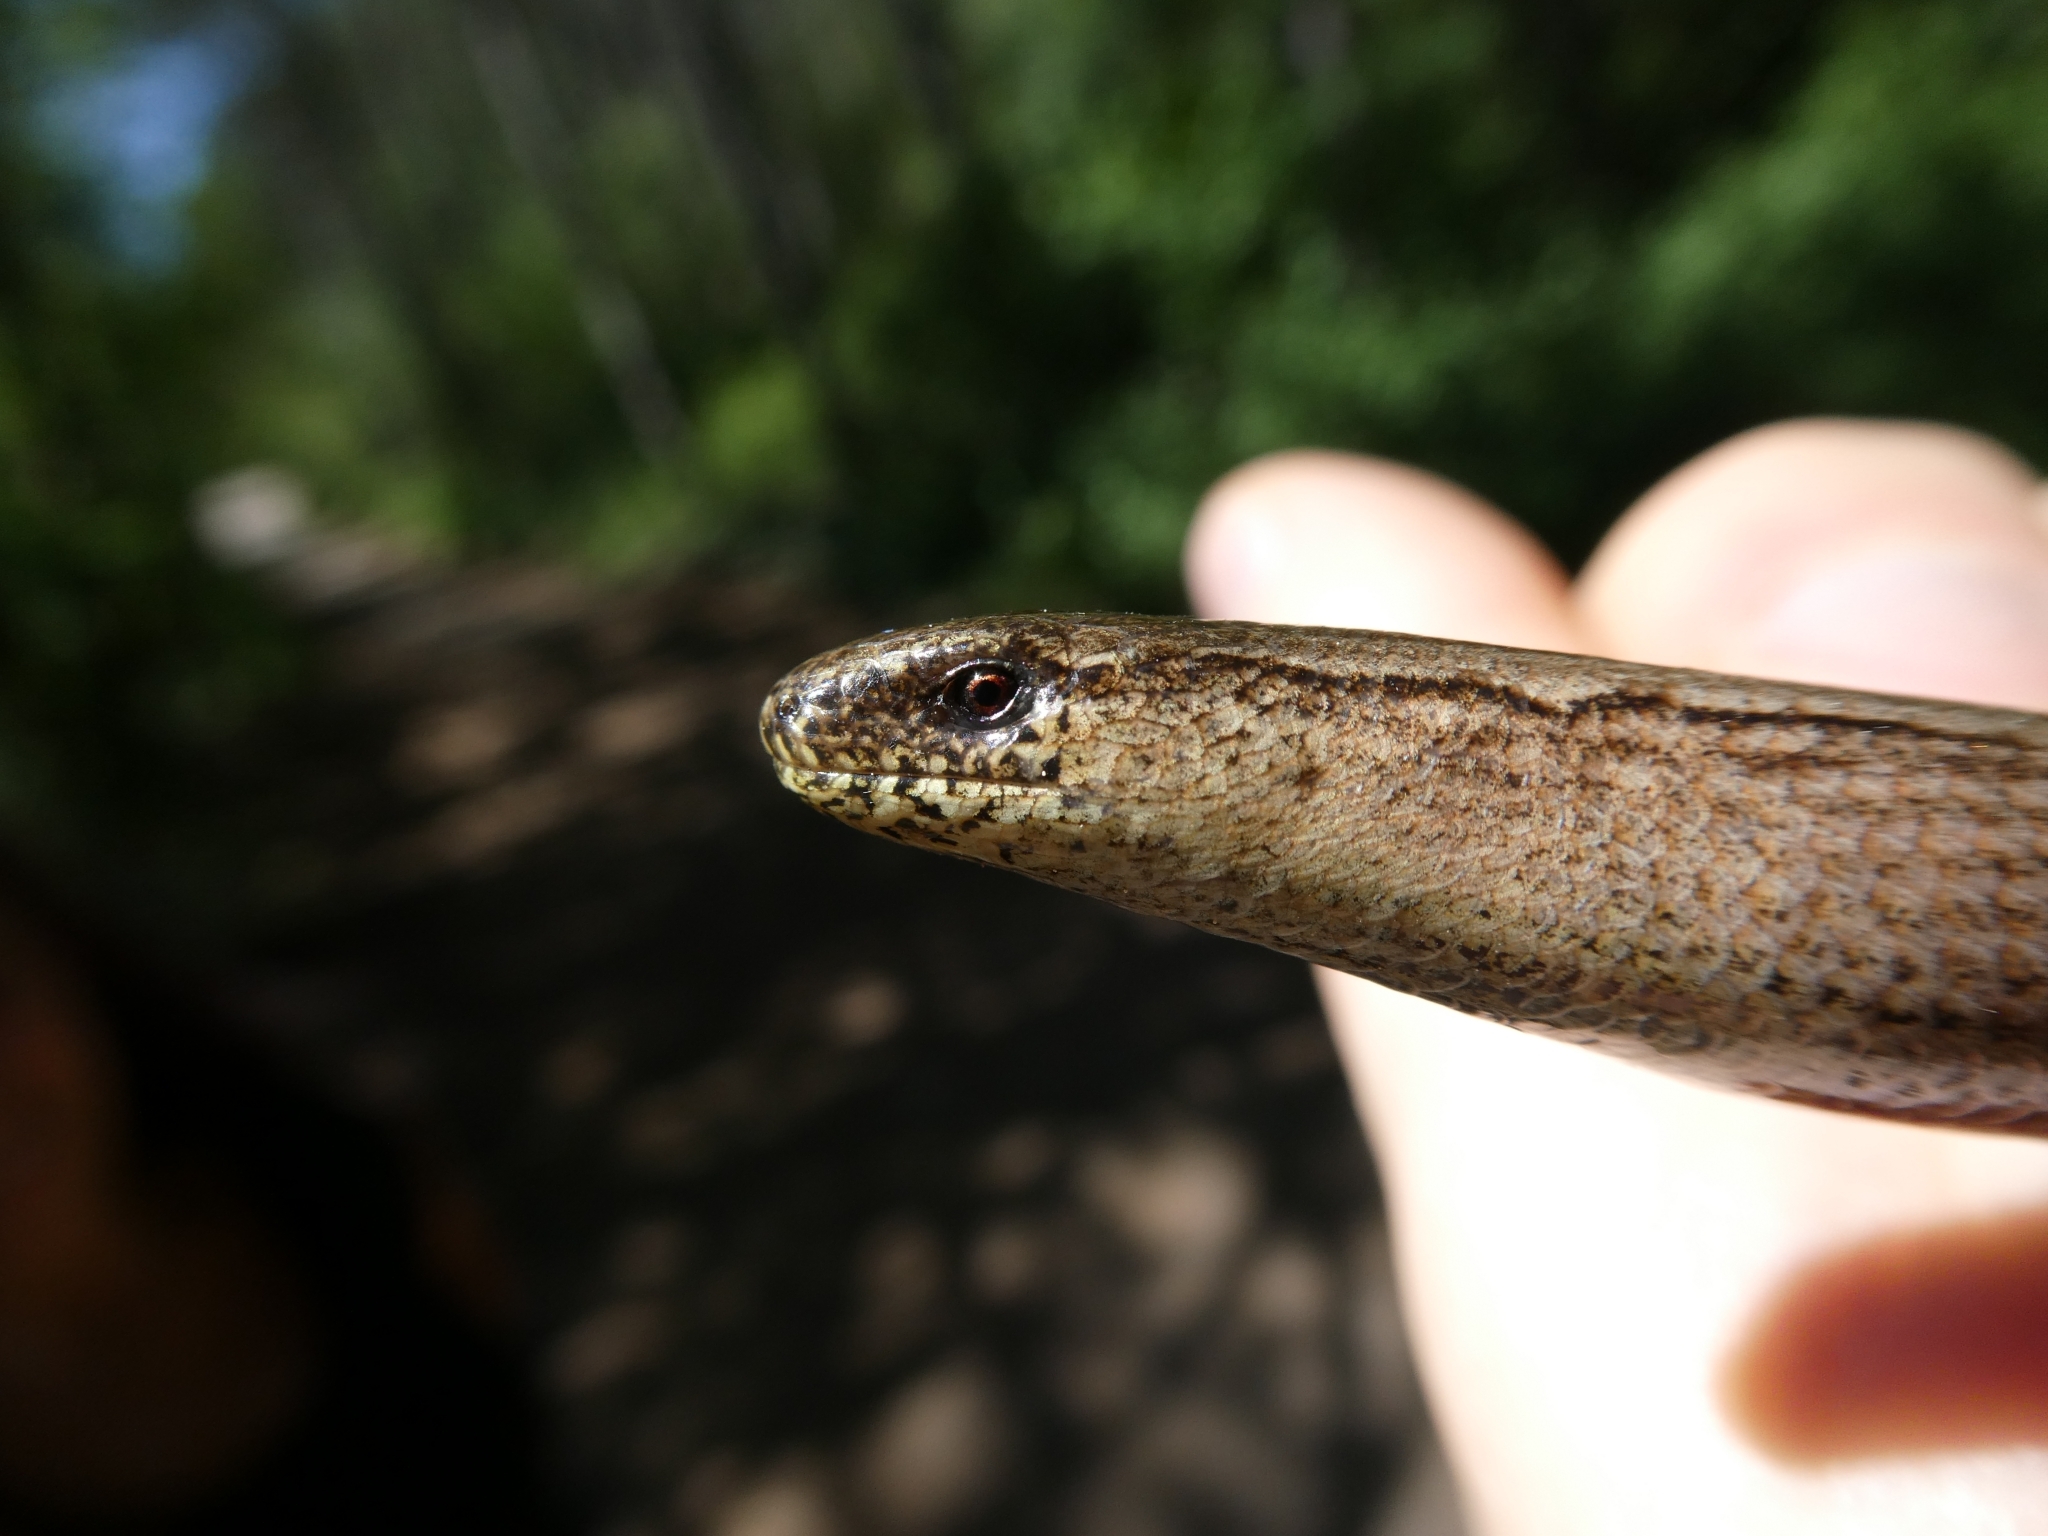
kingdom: Animalia
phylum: Chordata
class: Squamata
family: Anguidae
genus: Anguis
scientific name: Anguis fragilis
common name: Slow worm
